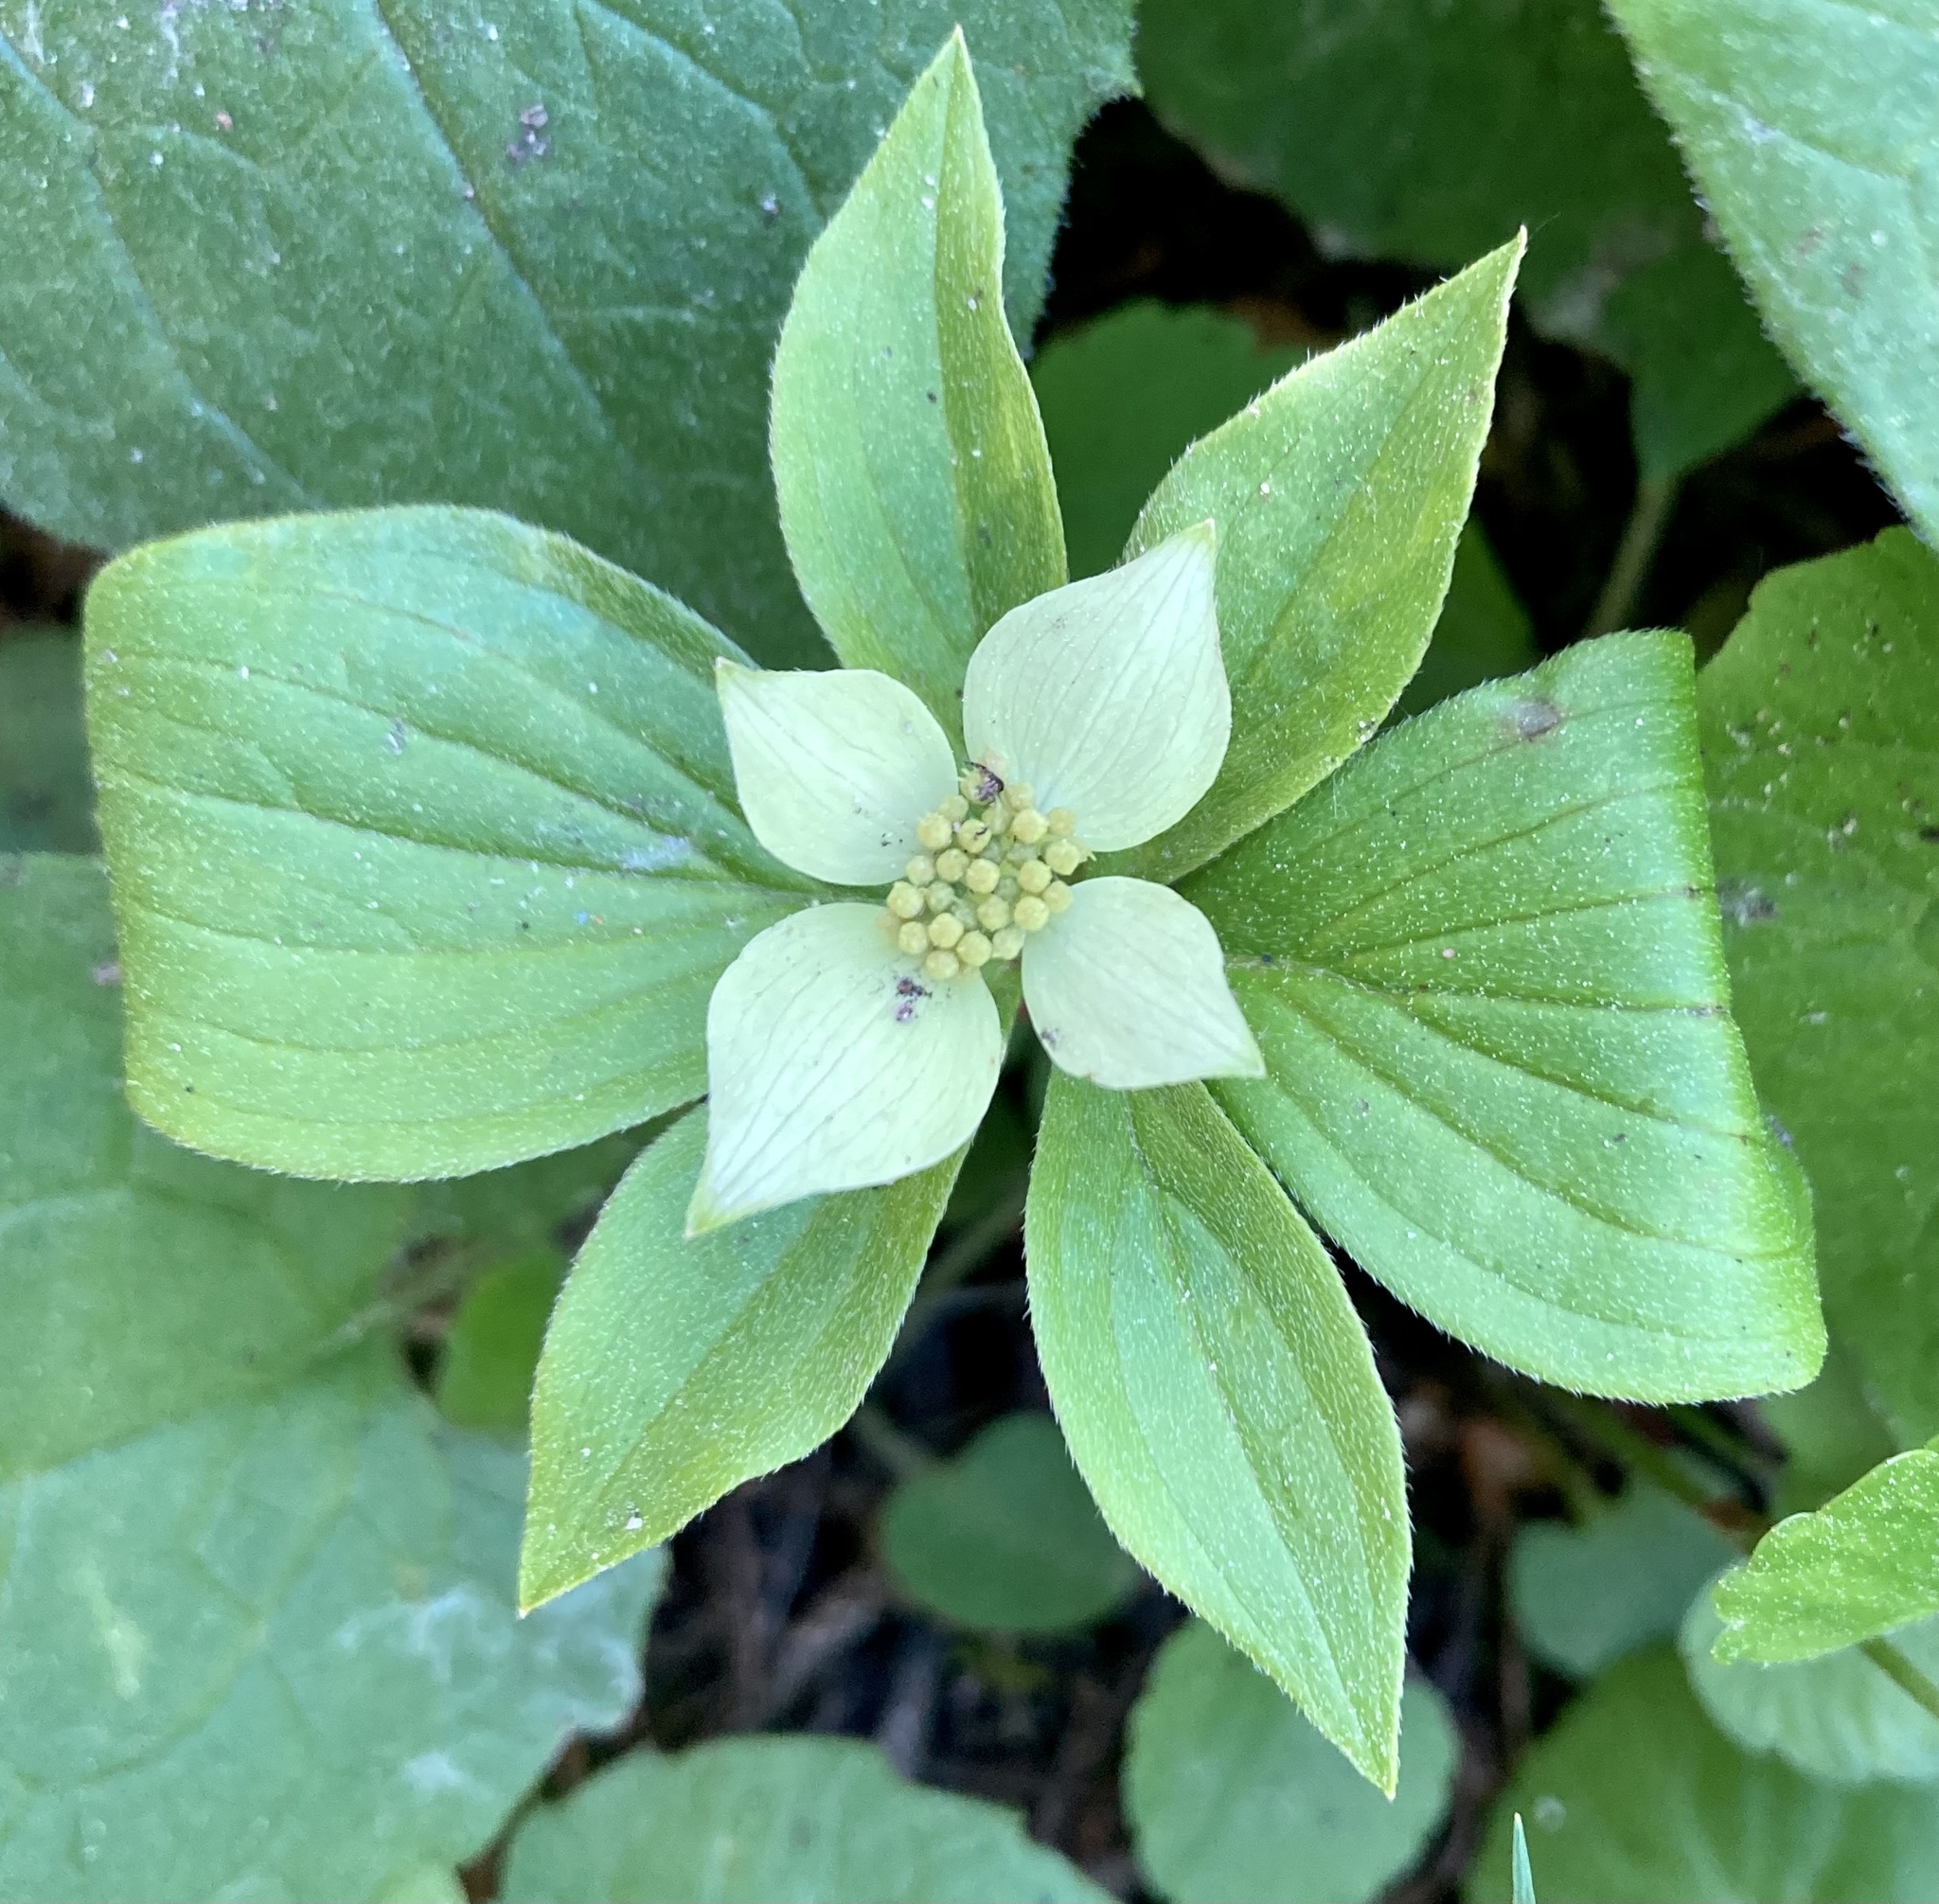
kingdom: Plantae
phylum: Tracheophyta
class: Magnoliopsida
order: Cornales
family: Cornaceae
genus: Cornus
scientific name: Cornus canadensis
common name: Creeping dogwood
